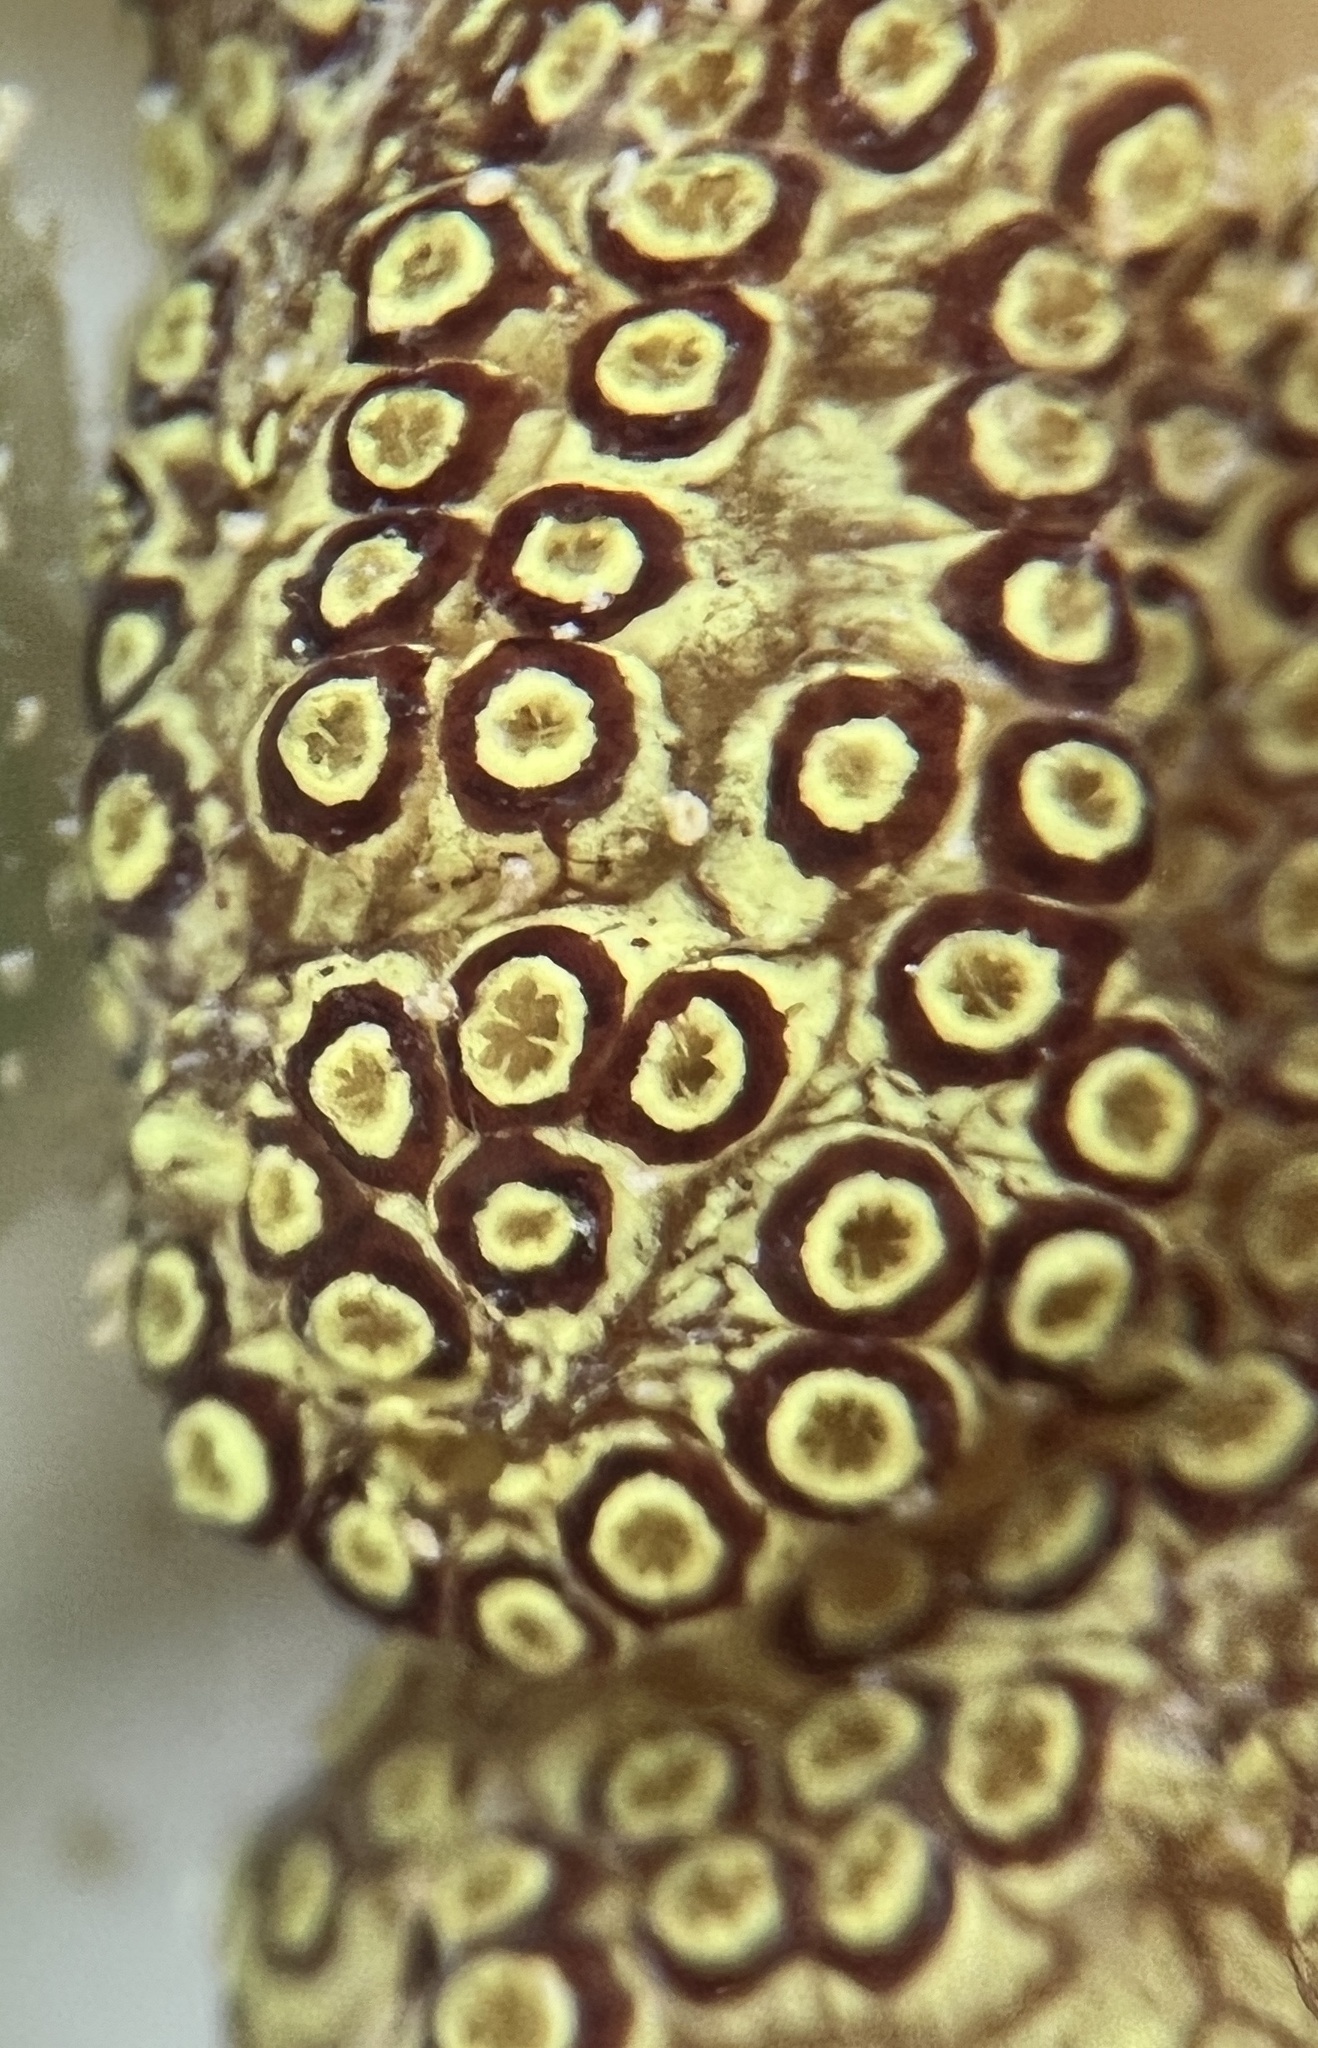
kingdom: Animalia
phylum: Chordata
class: Ascidiacea
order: Stolidobranchia
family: Styelidae
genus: Botryllus
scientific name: Botryllus planus
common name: Flat tunicate
